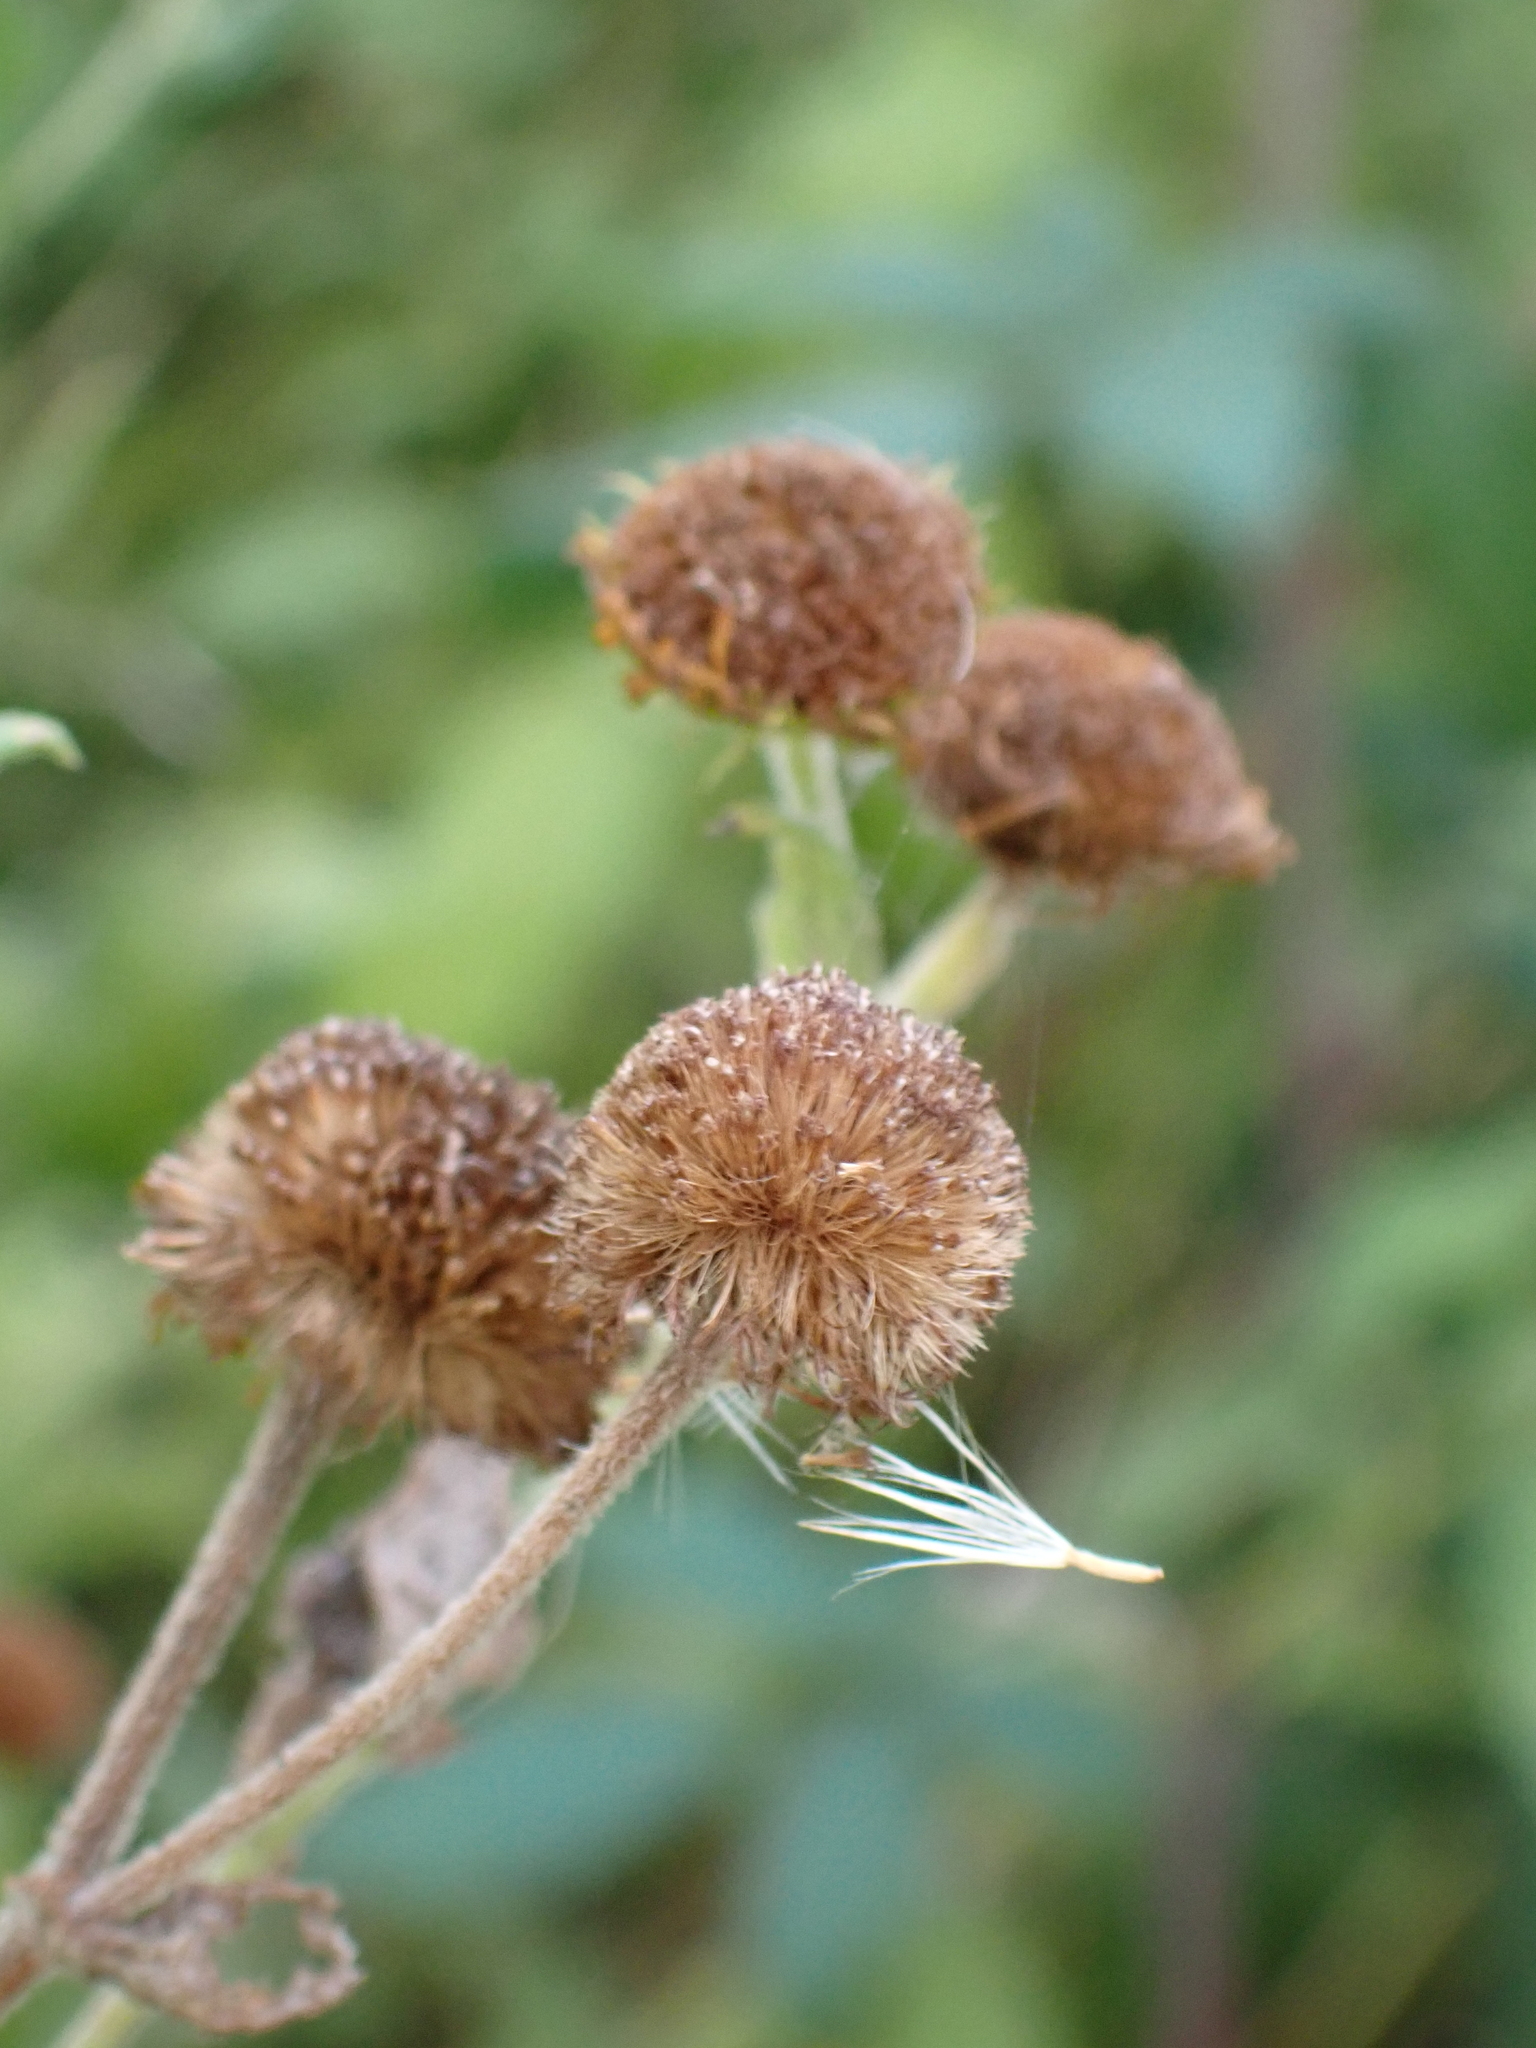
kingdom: Plantae
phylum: Tracheophyta
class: Magnoliopsida
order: Asterales
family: Asteraceae
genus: Pulicaria
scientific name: Pulicaria dysenterica
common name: Common fleabane
